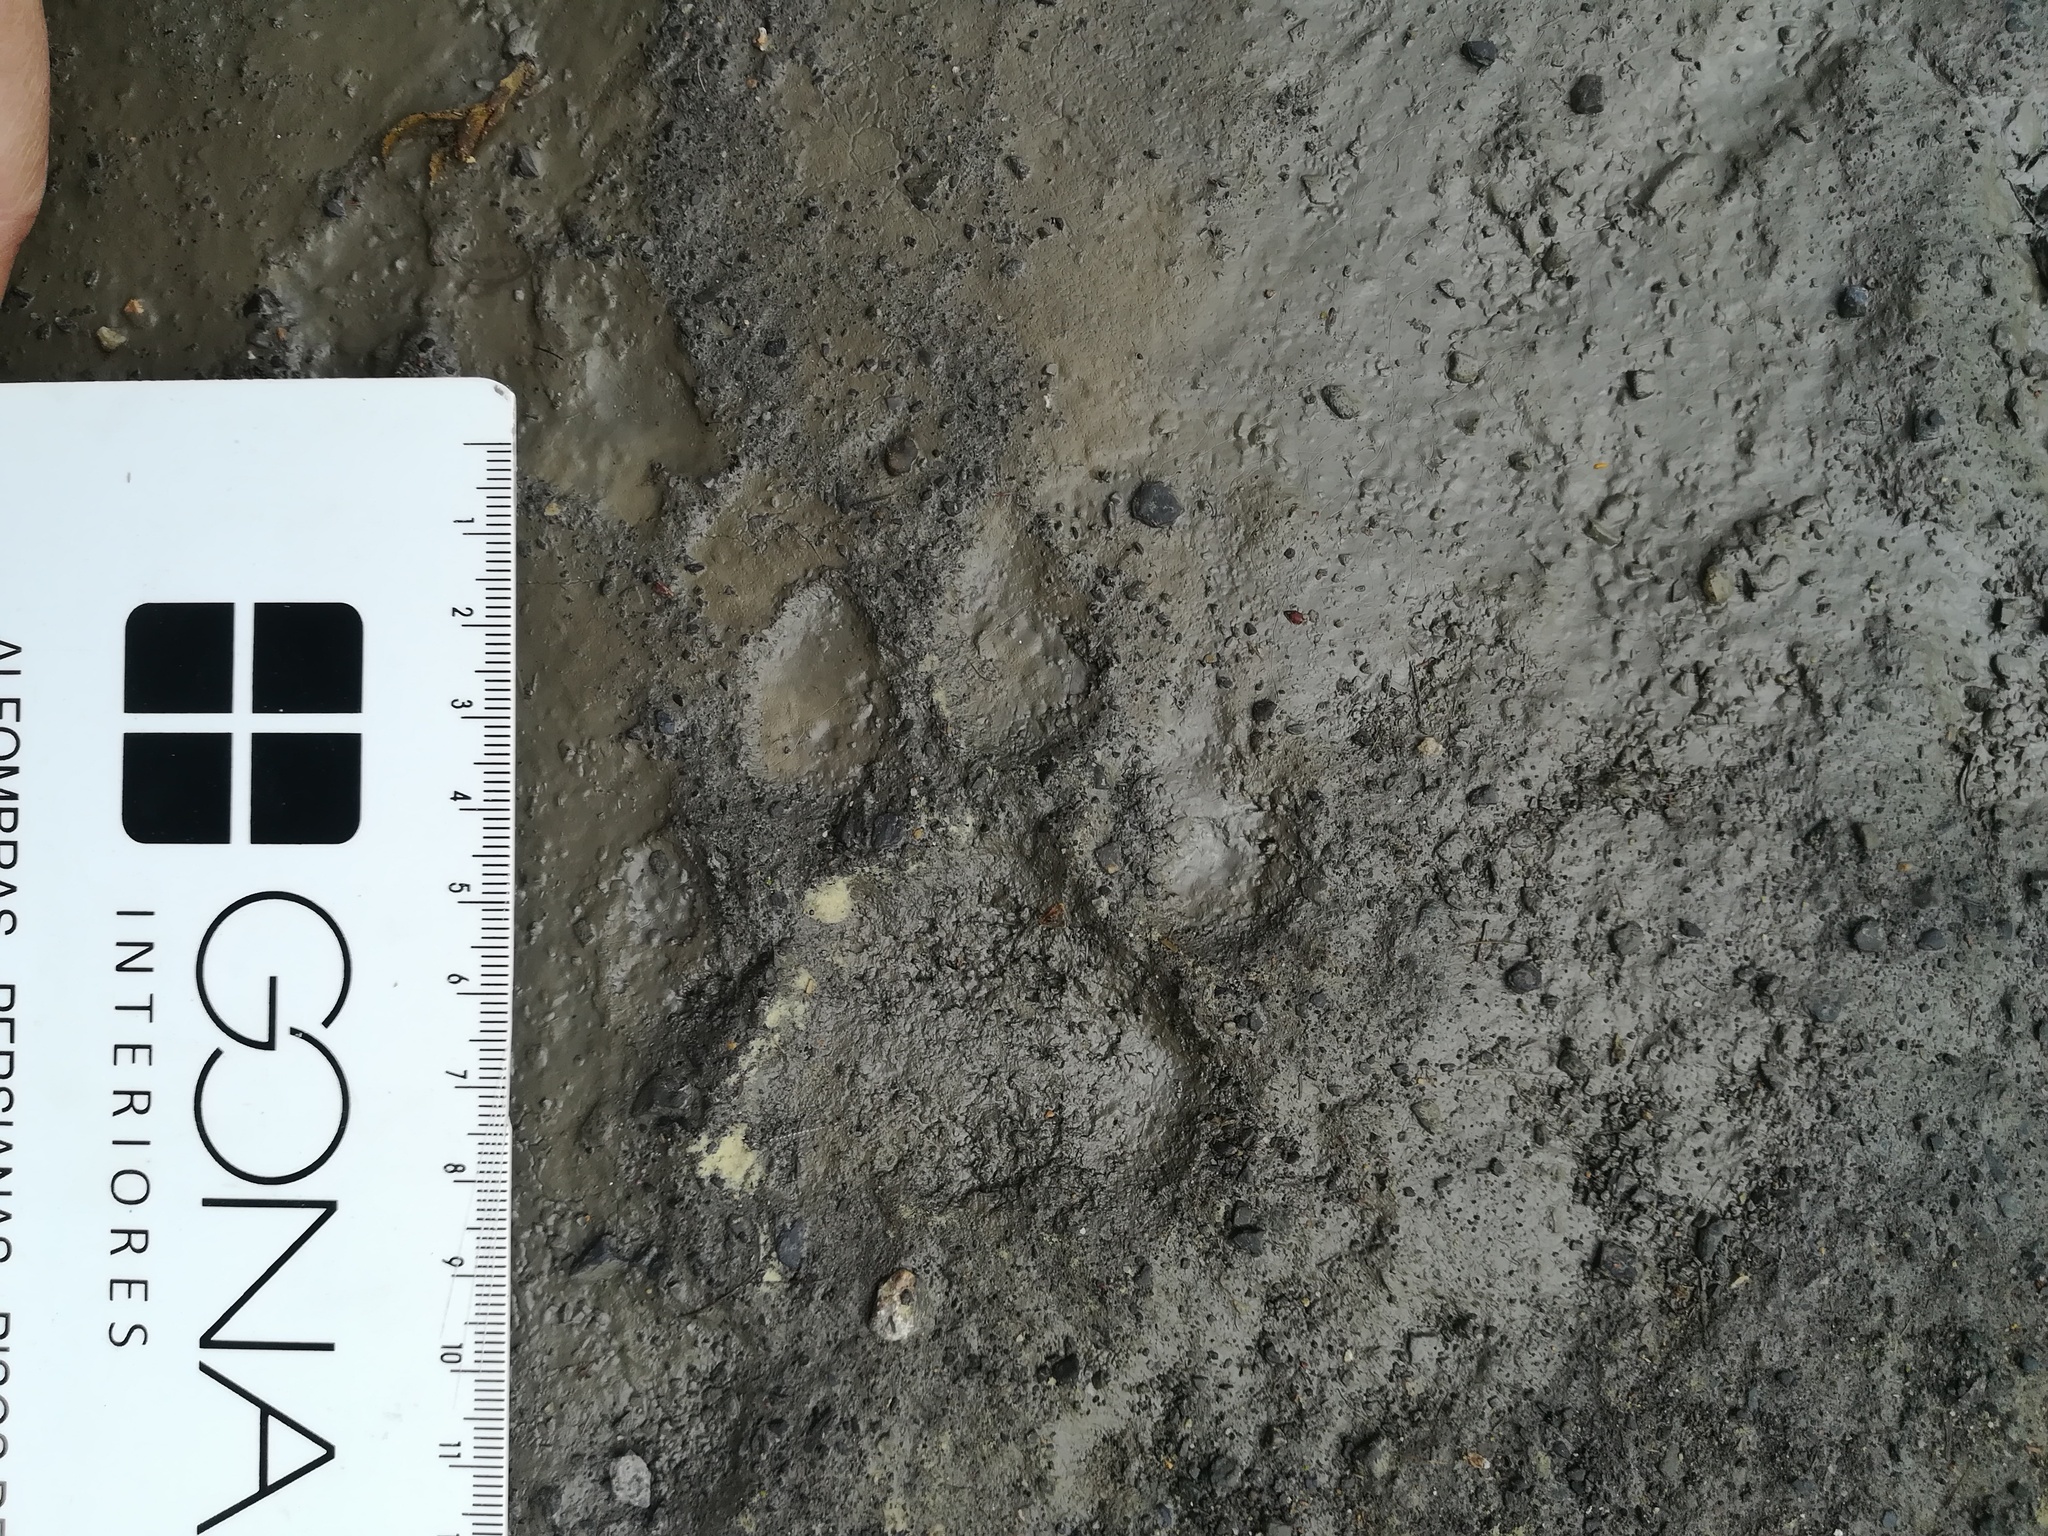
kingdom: Animalia
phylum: Chordata
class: Mammalia
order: Carnivora
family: Felidae
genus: Puma
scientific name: Puma concolor
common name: Puma
